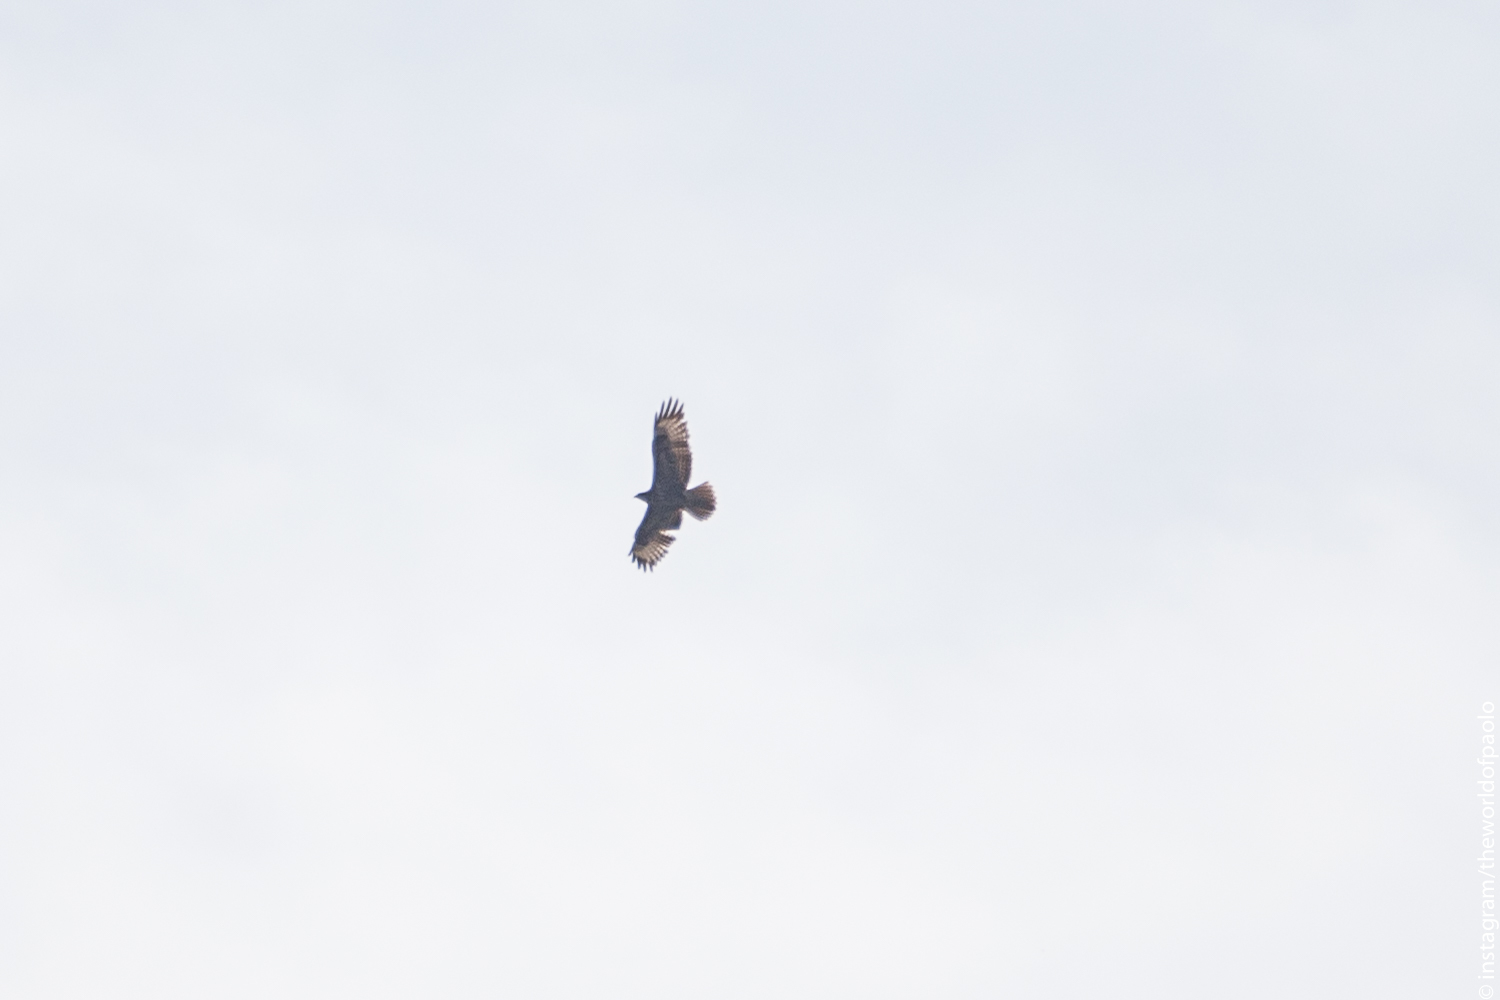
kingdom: Animalia
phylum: Chordata
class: Aves
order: Accipitriformes
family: Accipitridae
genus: Buteo
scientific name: Buteo buteo
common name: Common buzzard
